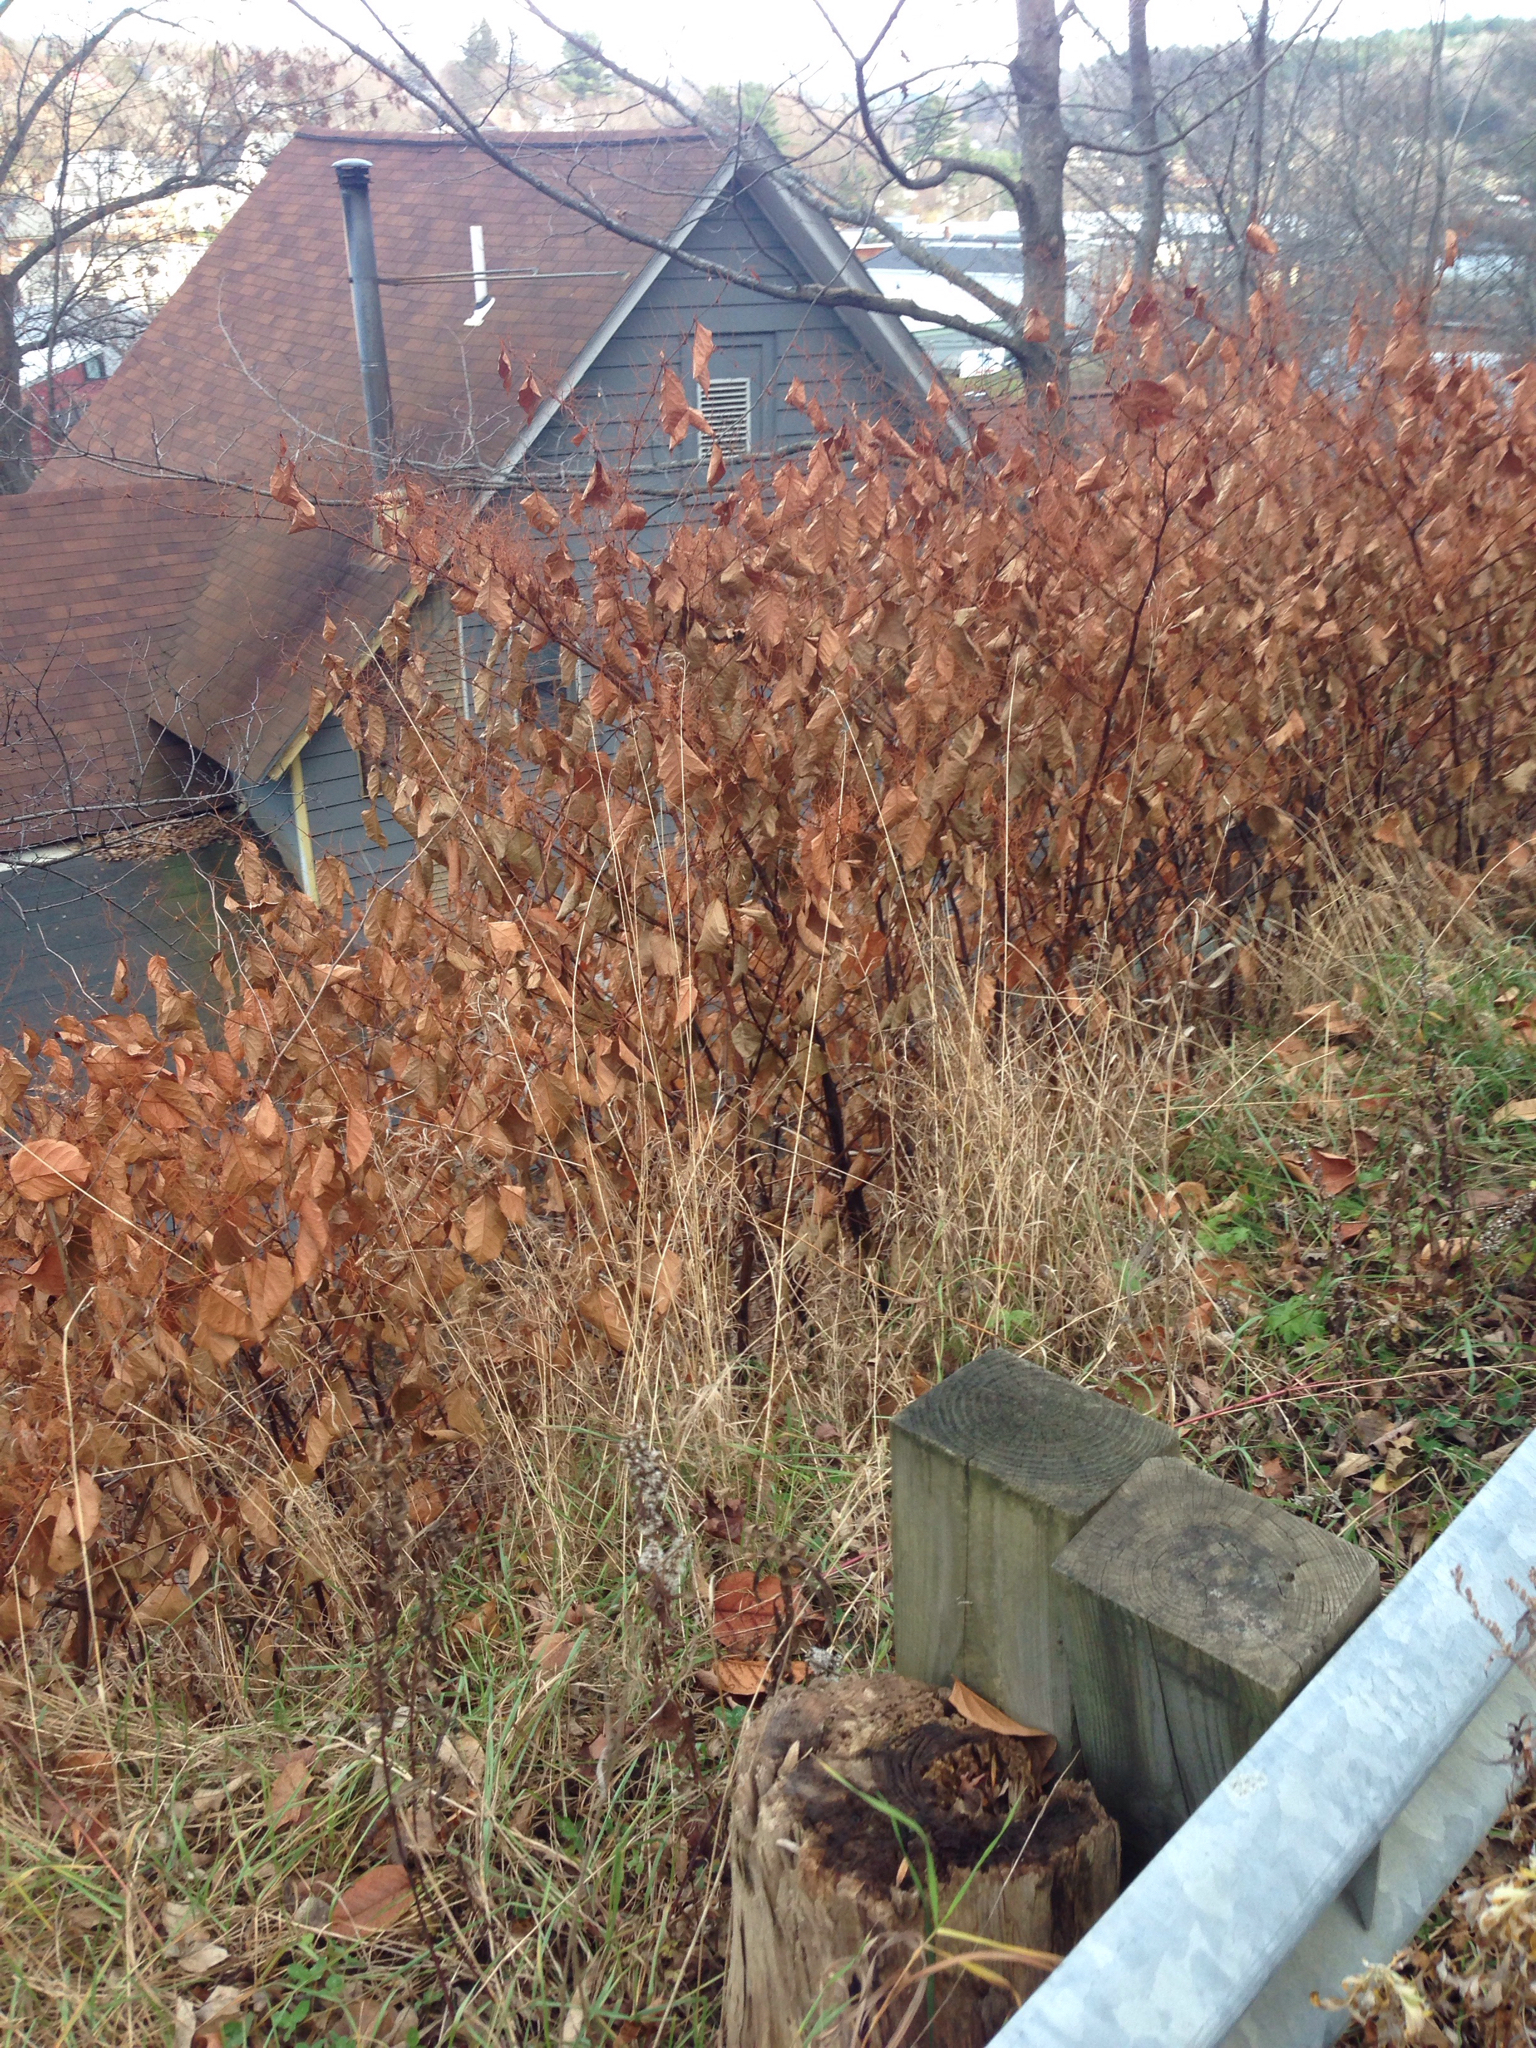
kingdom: Plantae
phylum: Tracheophyta
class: Magnoliopsida
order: Caryophyllales
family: Polygonaceae
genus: Reynoutria
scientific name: Reynoutria japonica
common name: Japanese knotweed
